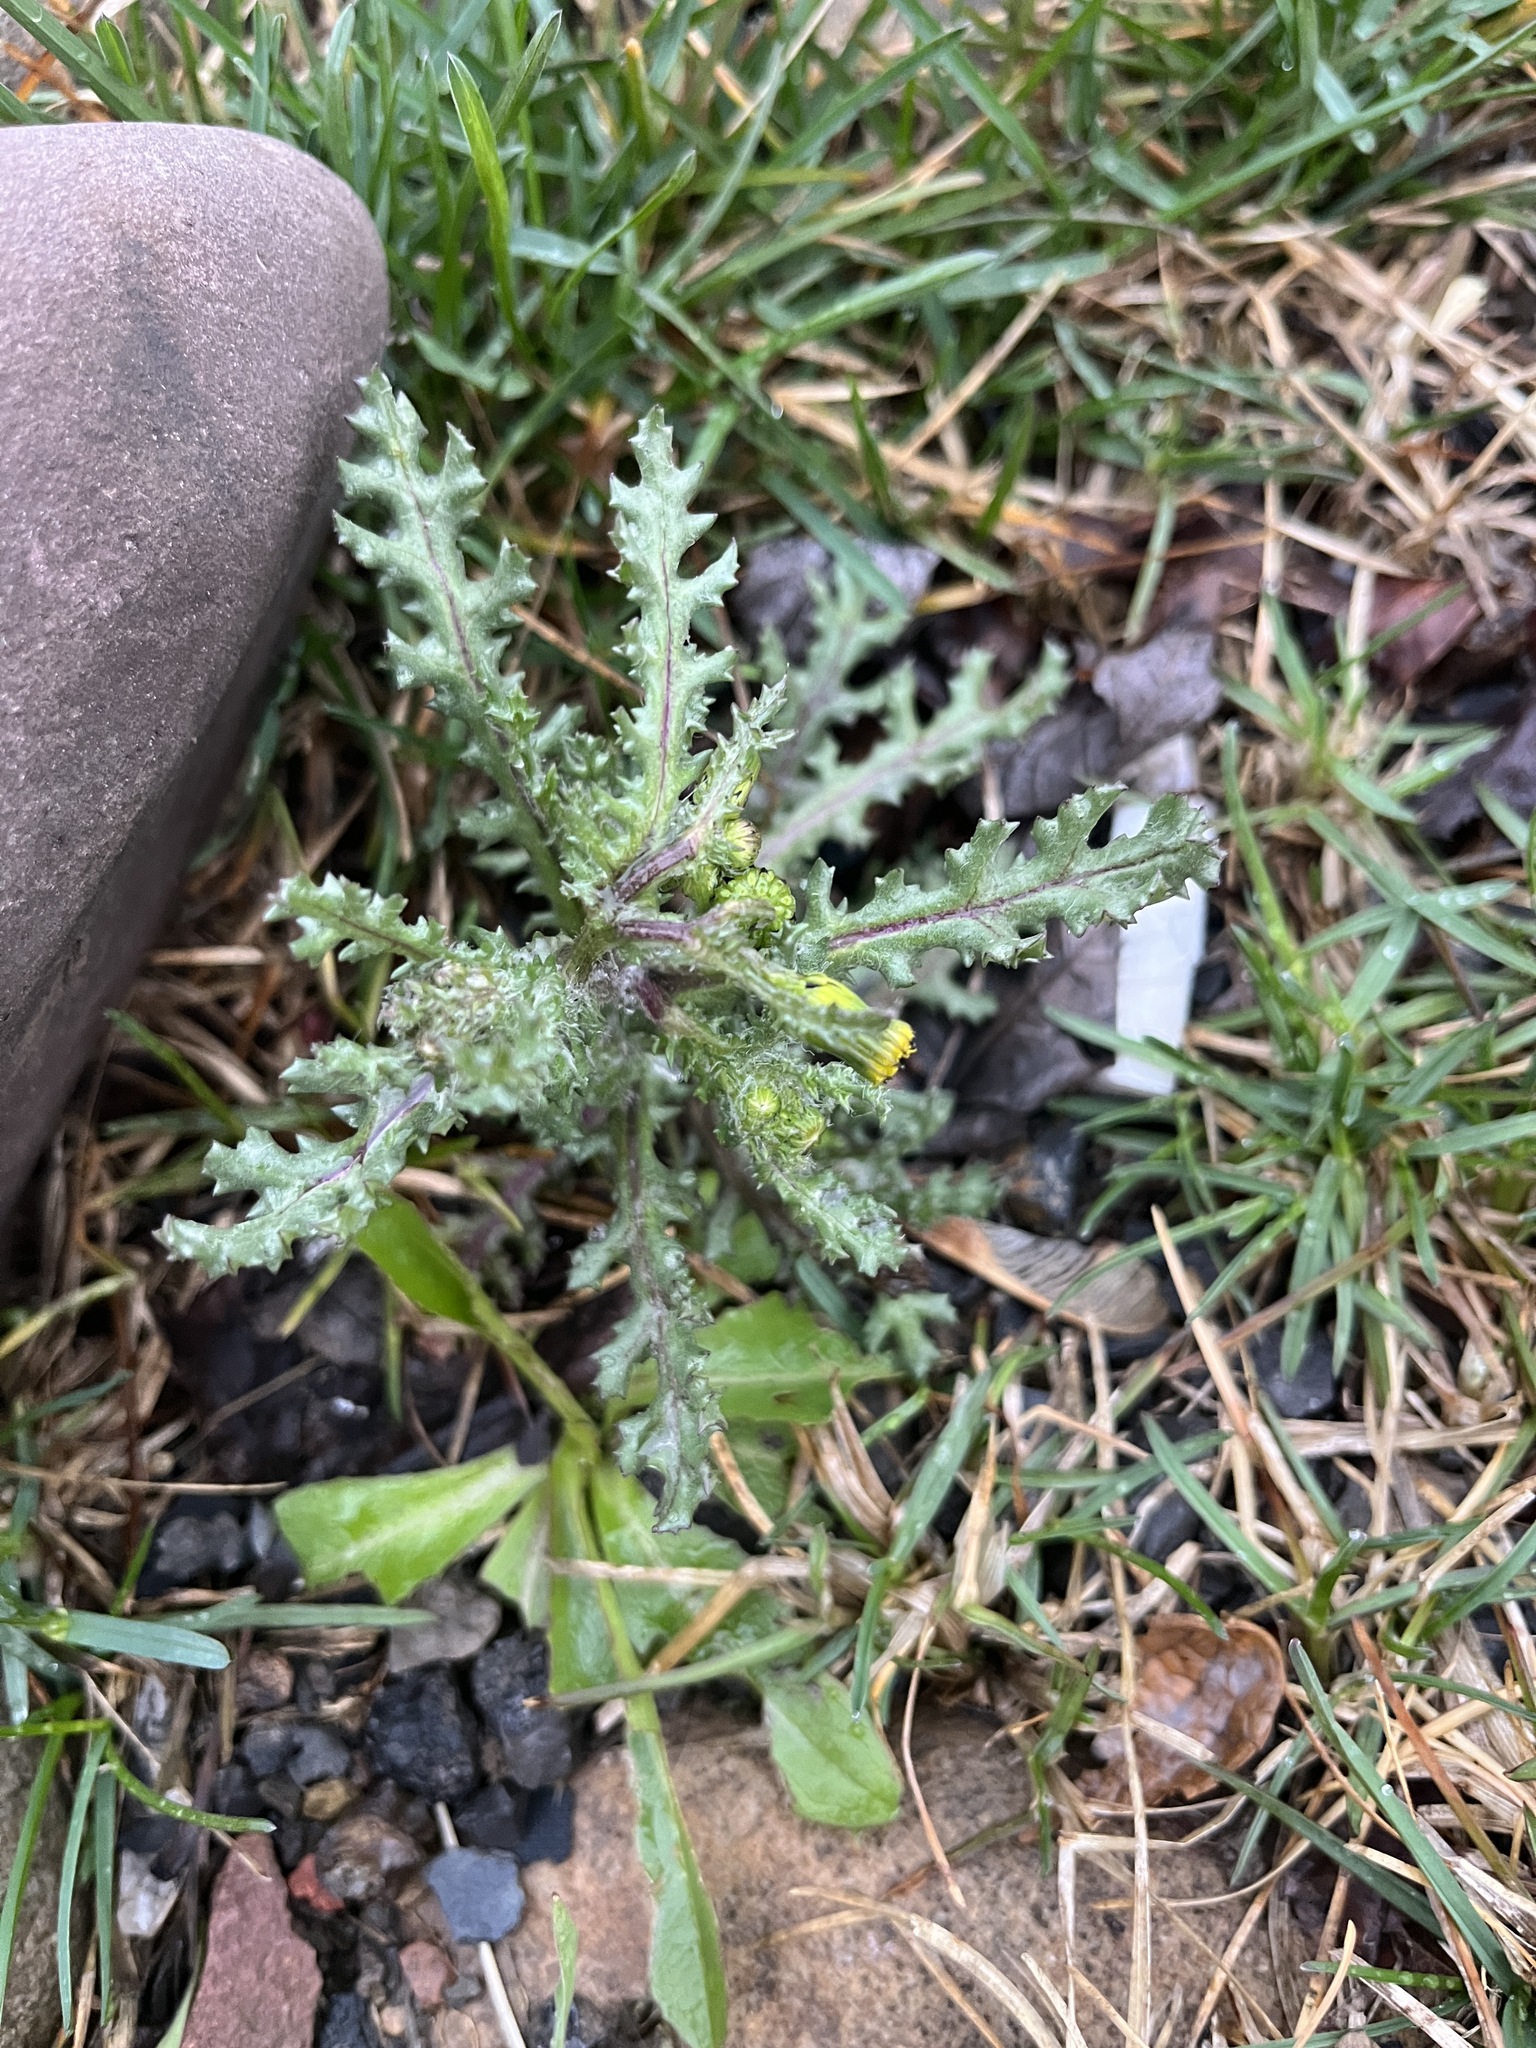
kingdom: Plantae
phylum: Tracheophyta
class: Magnoliopsida
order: Asterales
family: Asteraceae
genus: Senecio
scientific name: Senecio vulgaris
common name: Old-man-in-the-spring
